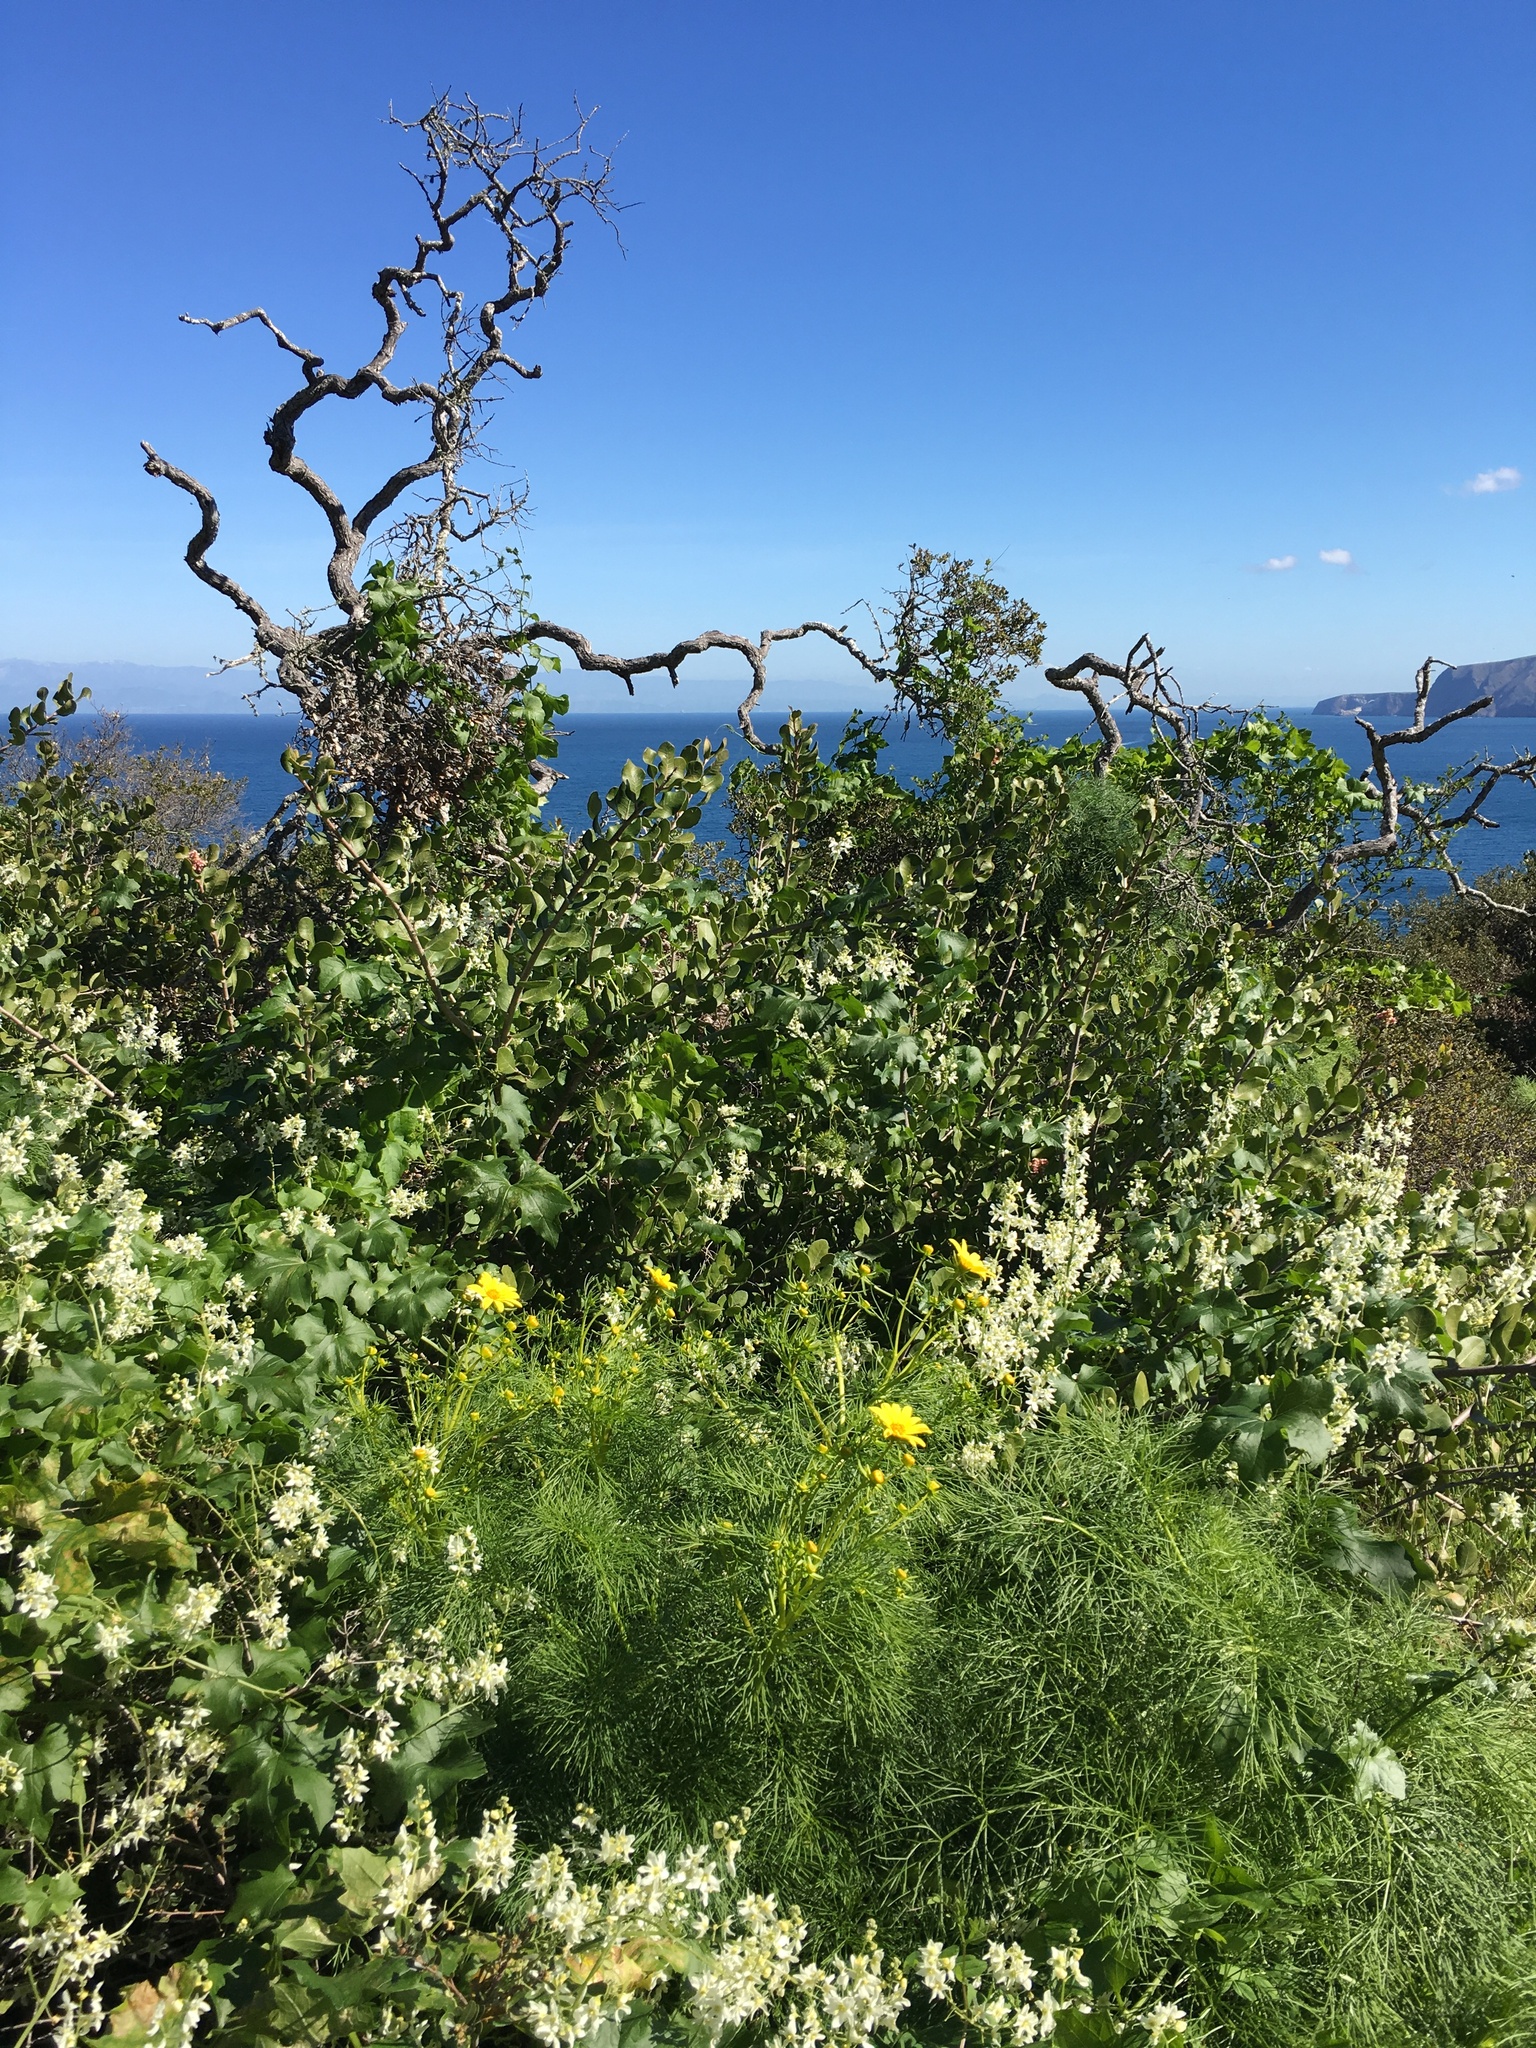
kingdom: Plantae
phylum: Tracheophyta
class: Magnoliopsida
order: Sapindales
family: Anacardiaceae
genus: Rhus
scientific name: Rhus integrifolia
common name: Lemonade sumac
